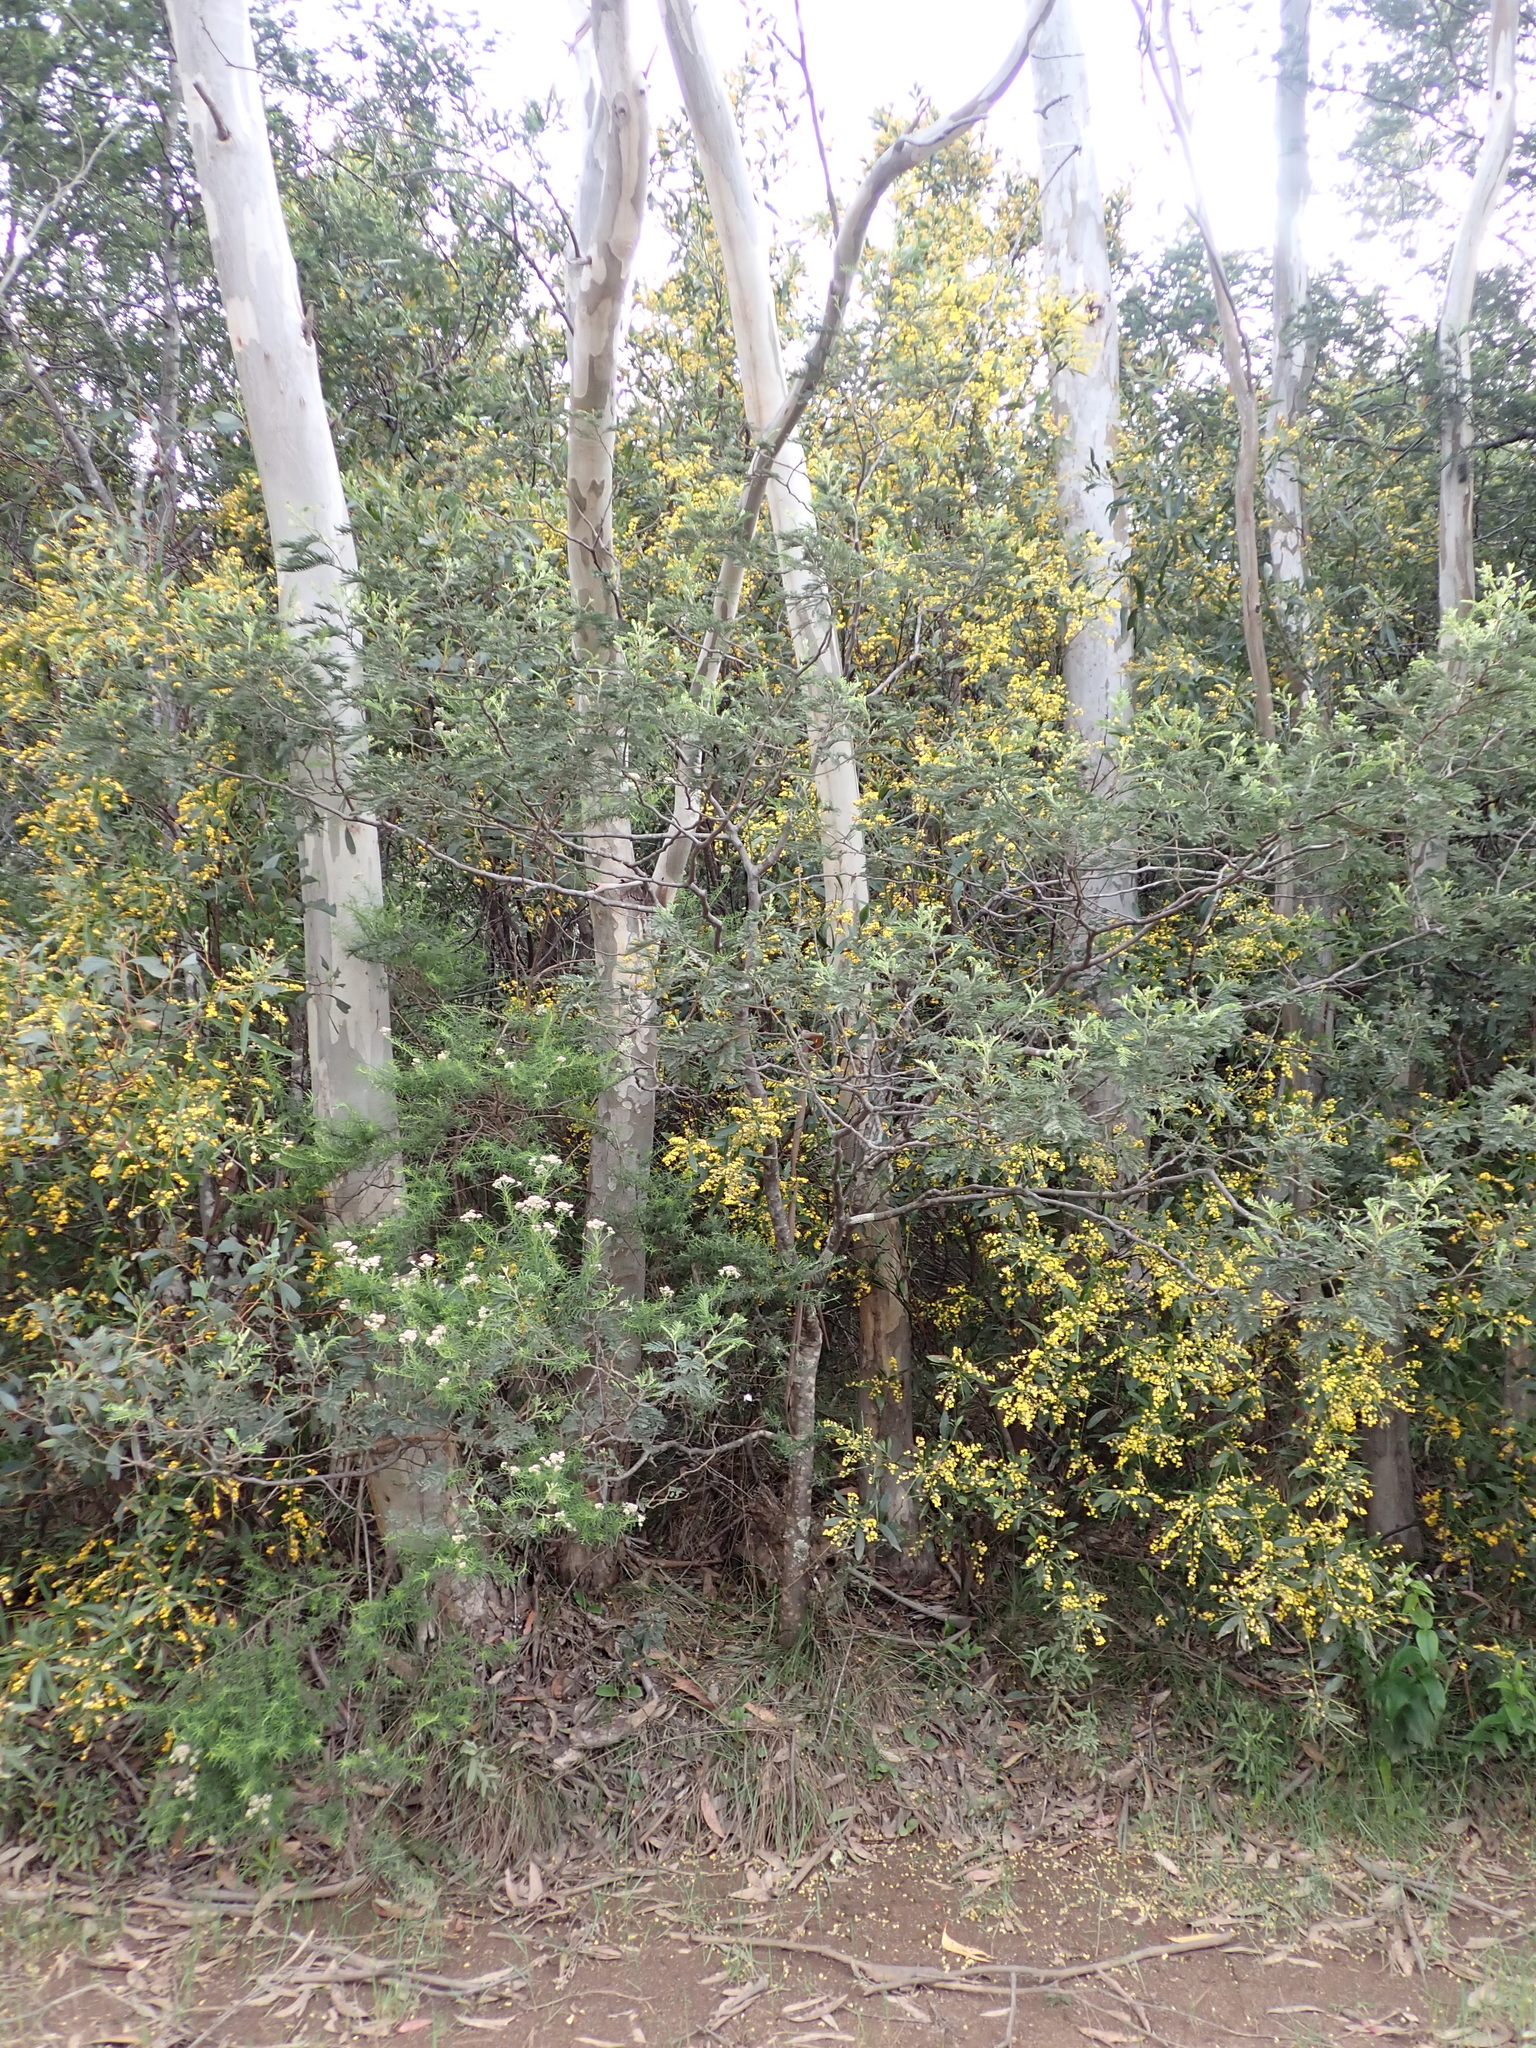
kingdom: Plantae
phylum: Tracheophyta
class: Magnoliopsida
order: Fabales
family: Fabaceae
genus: Daviesia
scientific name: Daviesia laxiflora
